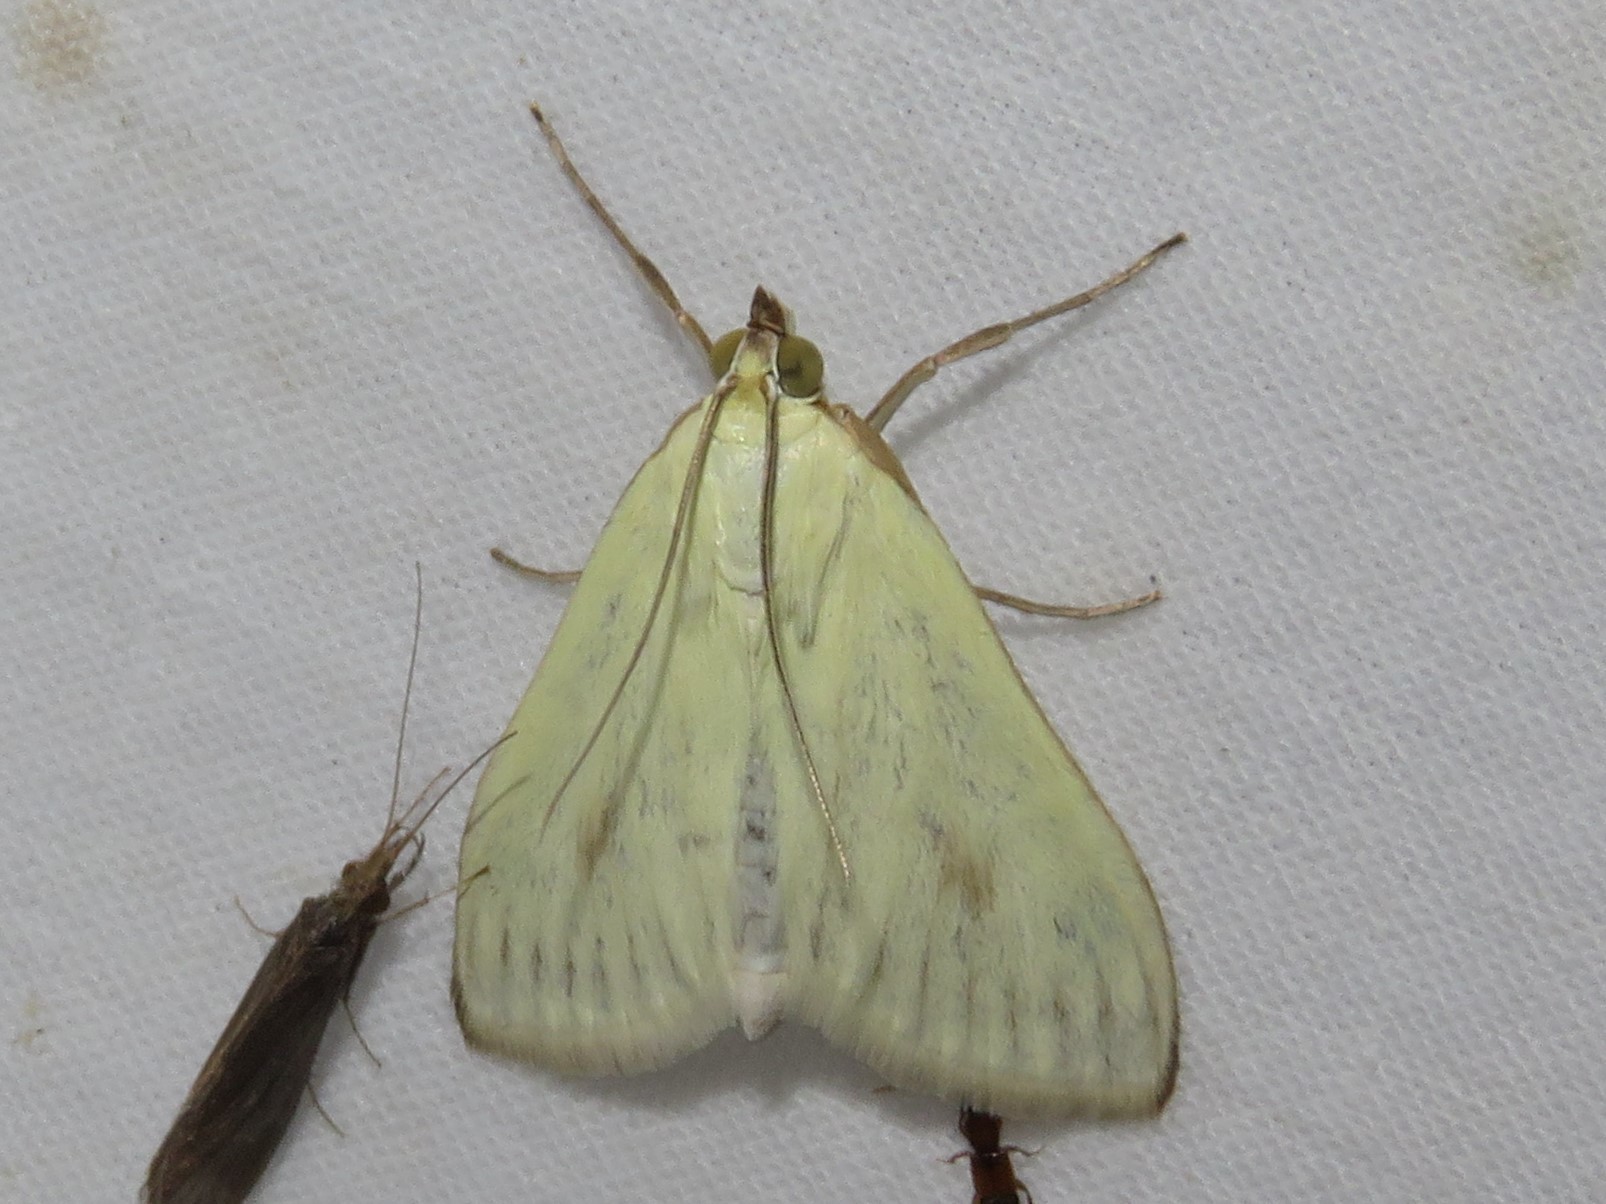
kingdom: Animalia
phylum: Arthropoda
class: Insecta
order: Lepidoptera
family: Crambidae
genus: Sitochroa
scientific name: Sitochroa palealis
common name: Greenish-yellow sitochroa moth
